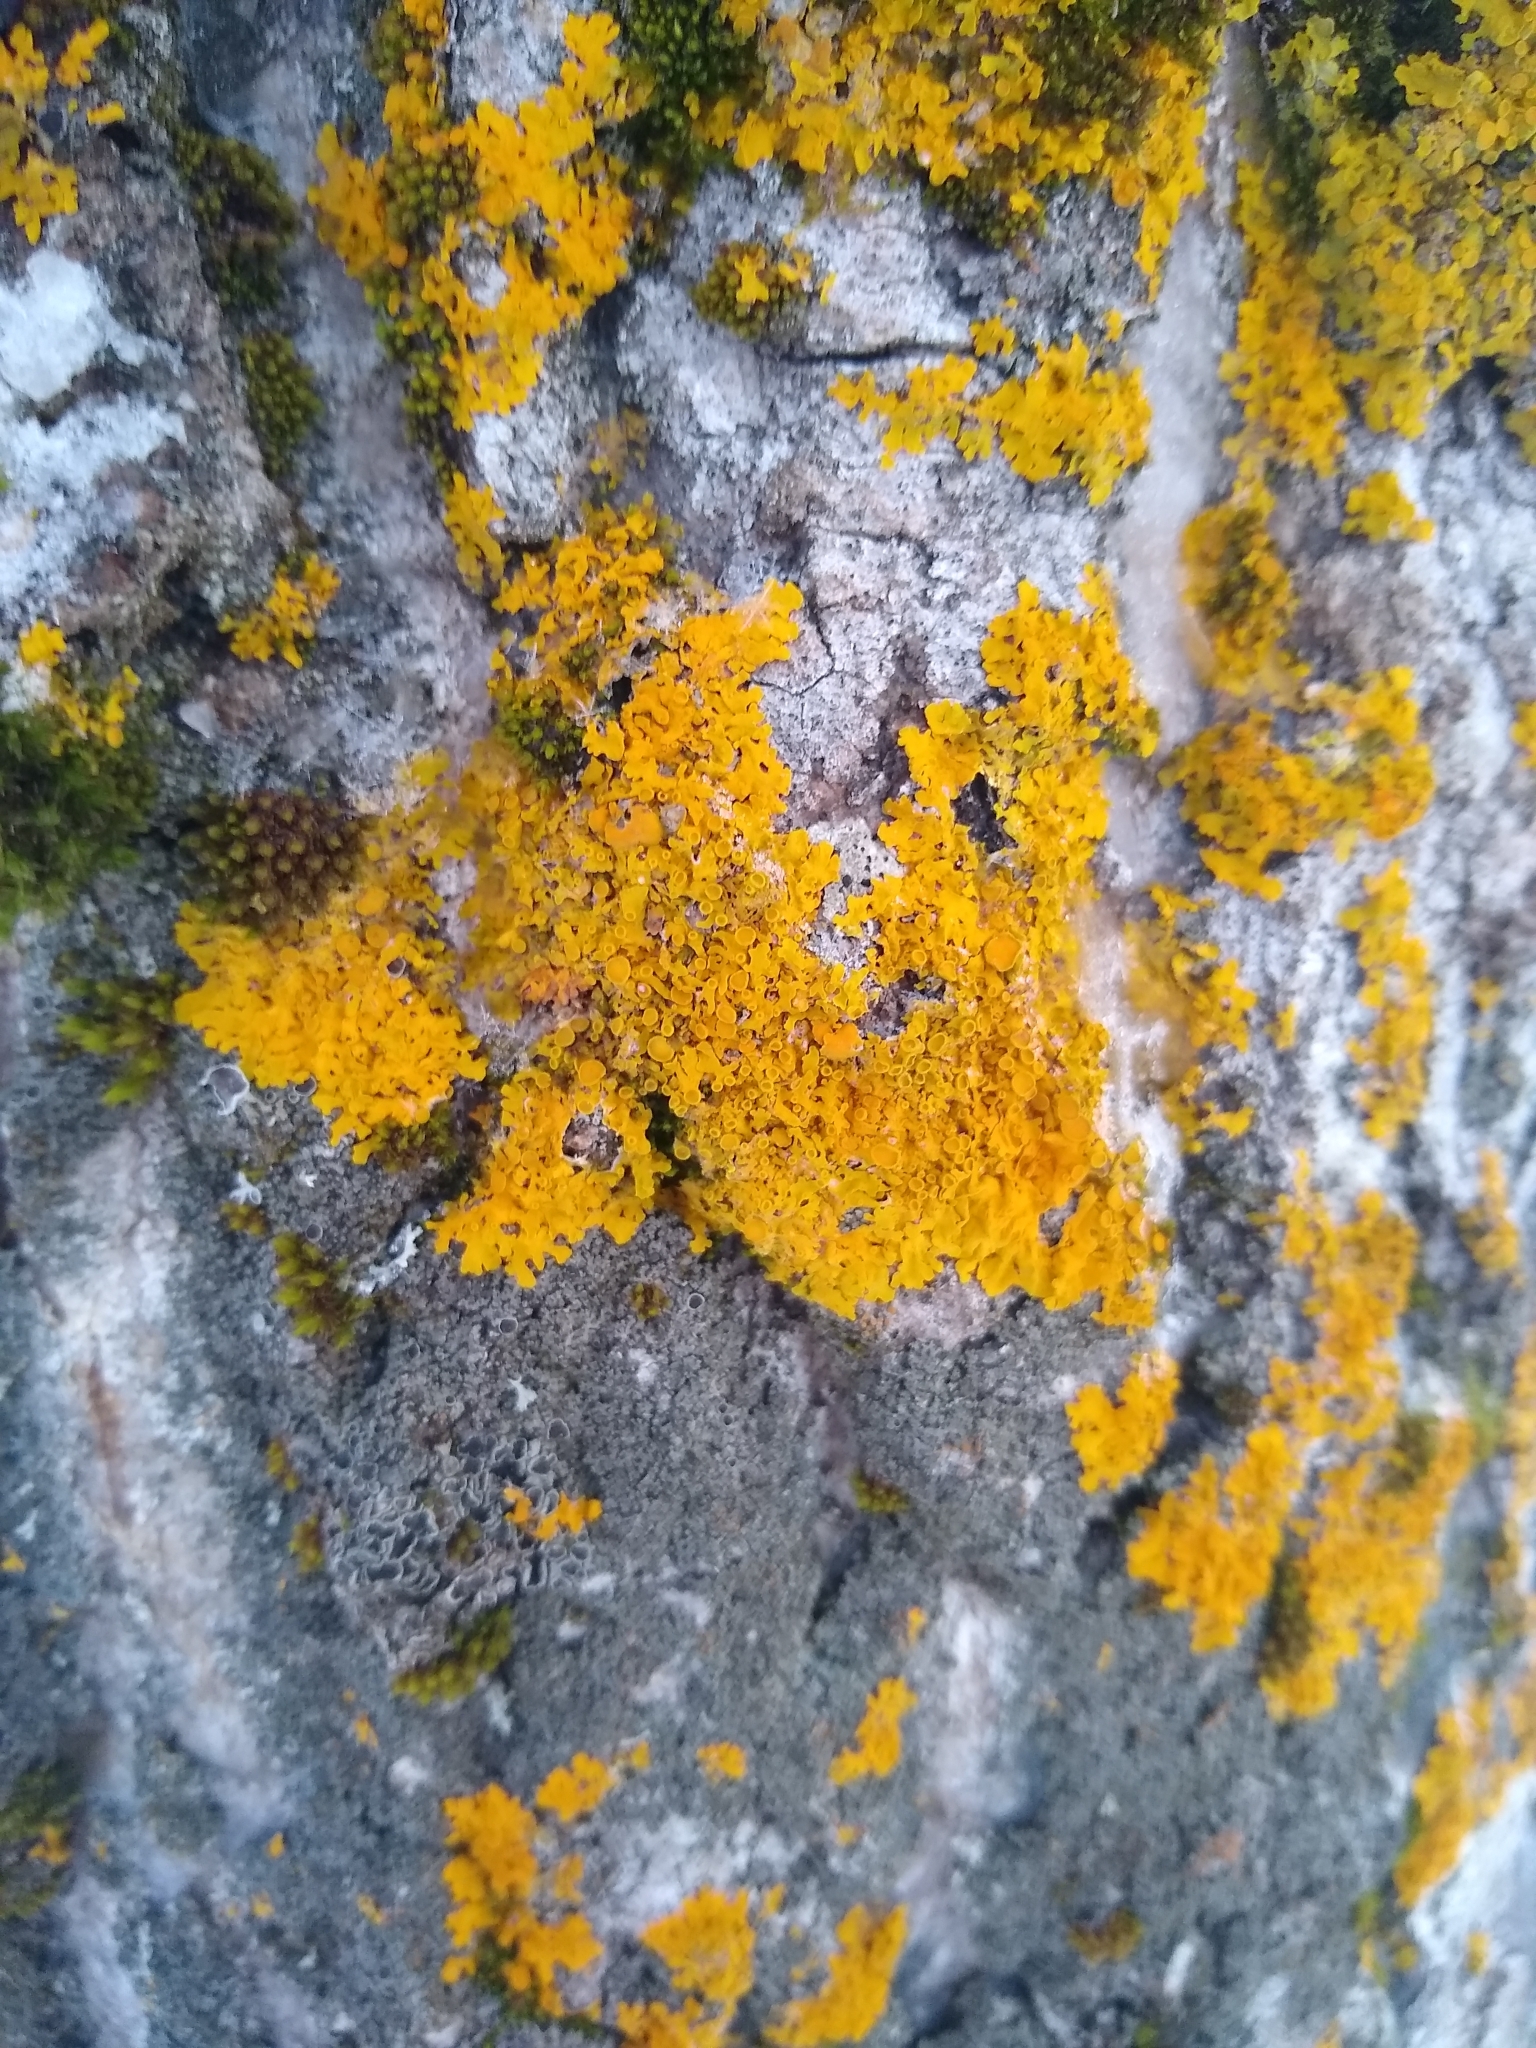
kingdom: Fungi
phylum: Ascomycota
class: Lecanoromycetes
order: Teloschistales
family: Teloschistaceae
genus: Xanthoria
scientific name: Xanthoria parietina
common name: Common orange lichen
